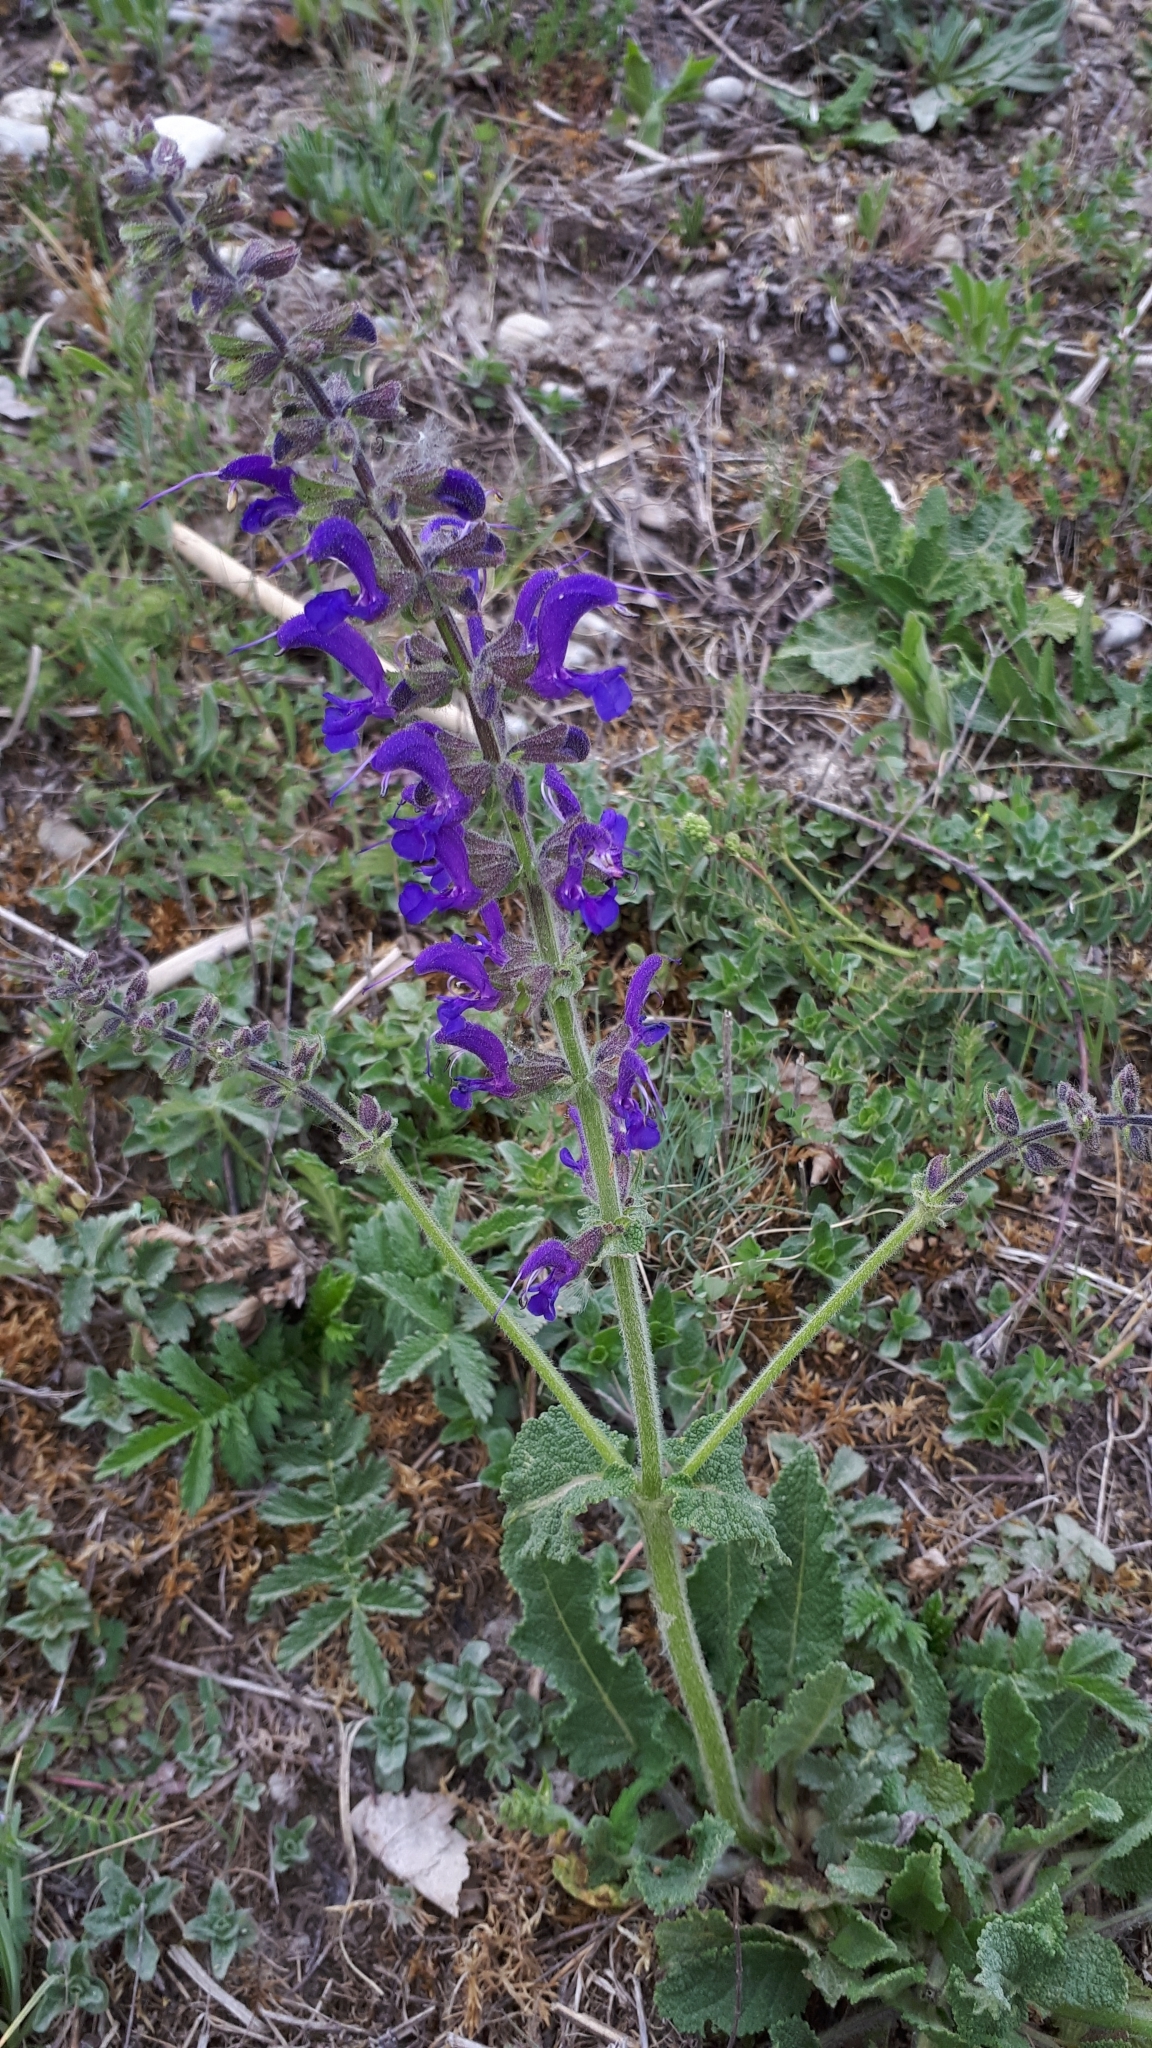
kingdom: Plantae
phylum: Tracheophyta
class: Magnoliopsida
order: Lamiales
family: Lamiaceae
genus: Salvia
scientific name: Salvia pratensis
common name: Meadow sage
